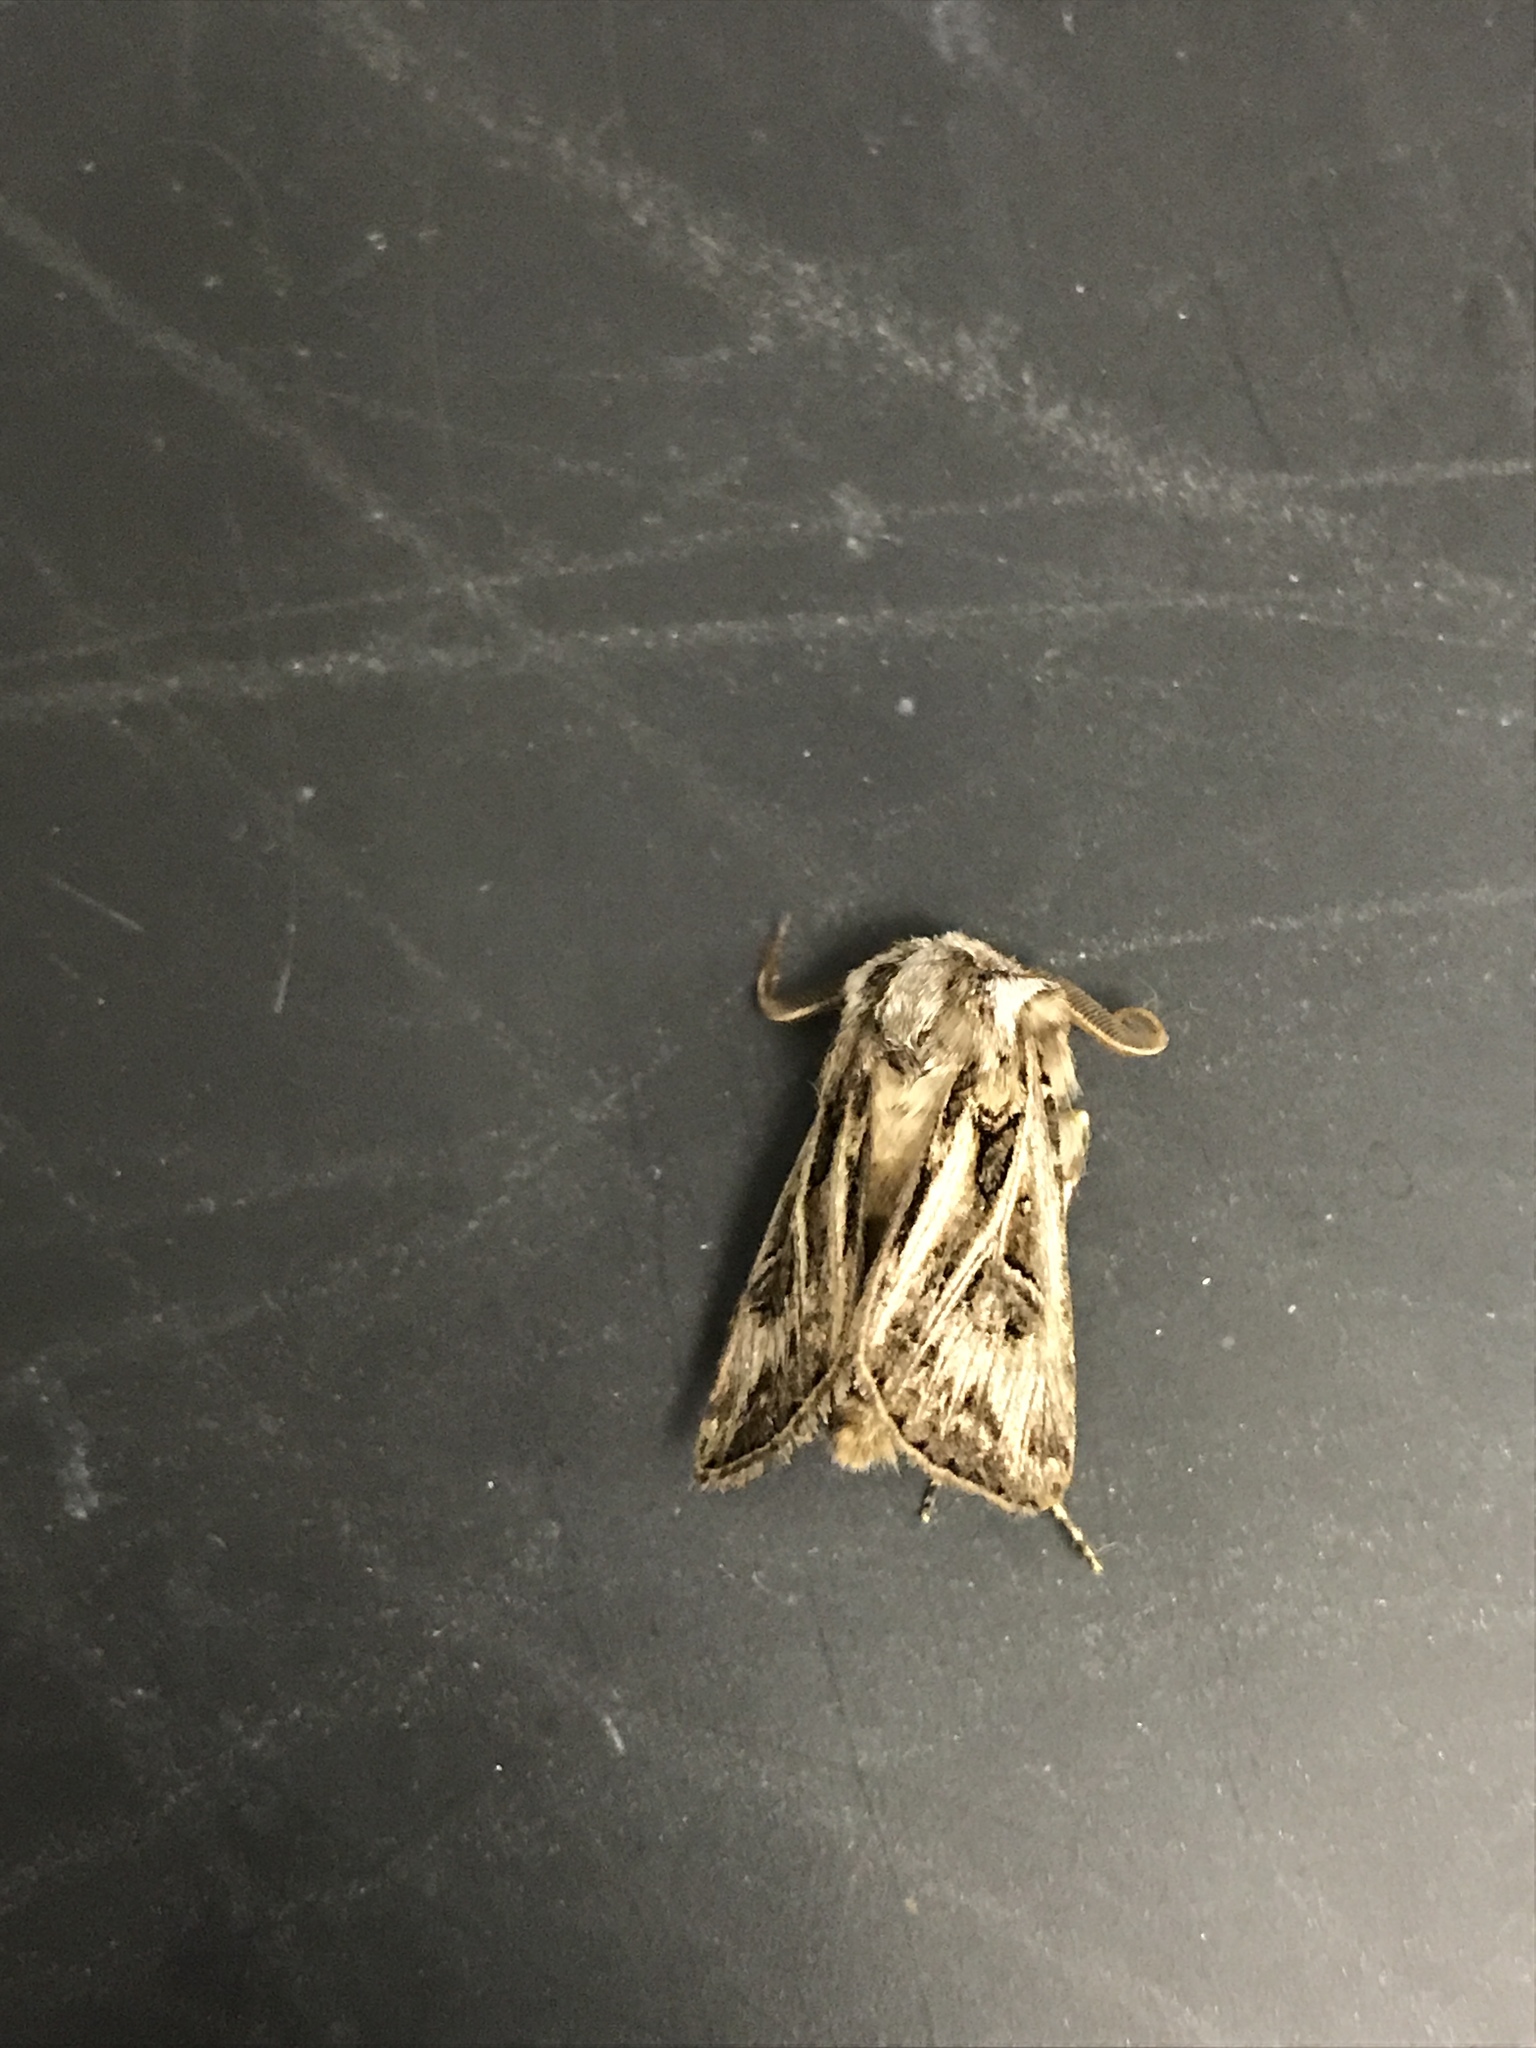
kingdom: Animalia
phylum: Arthropoda
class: Insecta
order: Lepidoptera
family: Noctuidae
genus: Agrotis
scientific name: Agrotis gladiaria
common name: Claybacked cutworm
